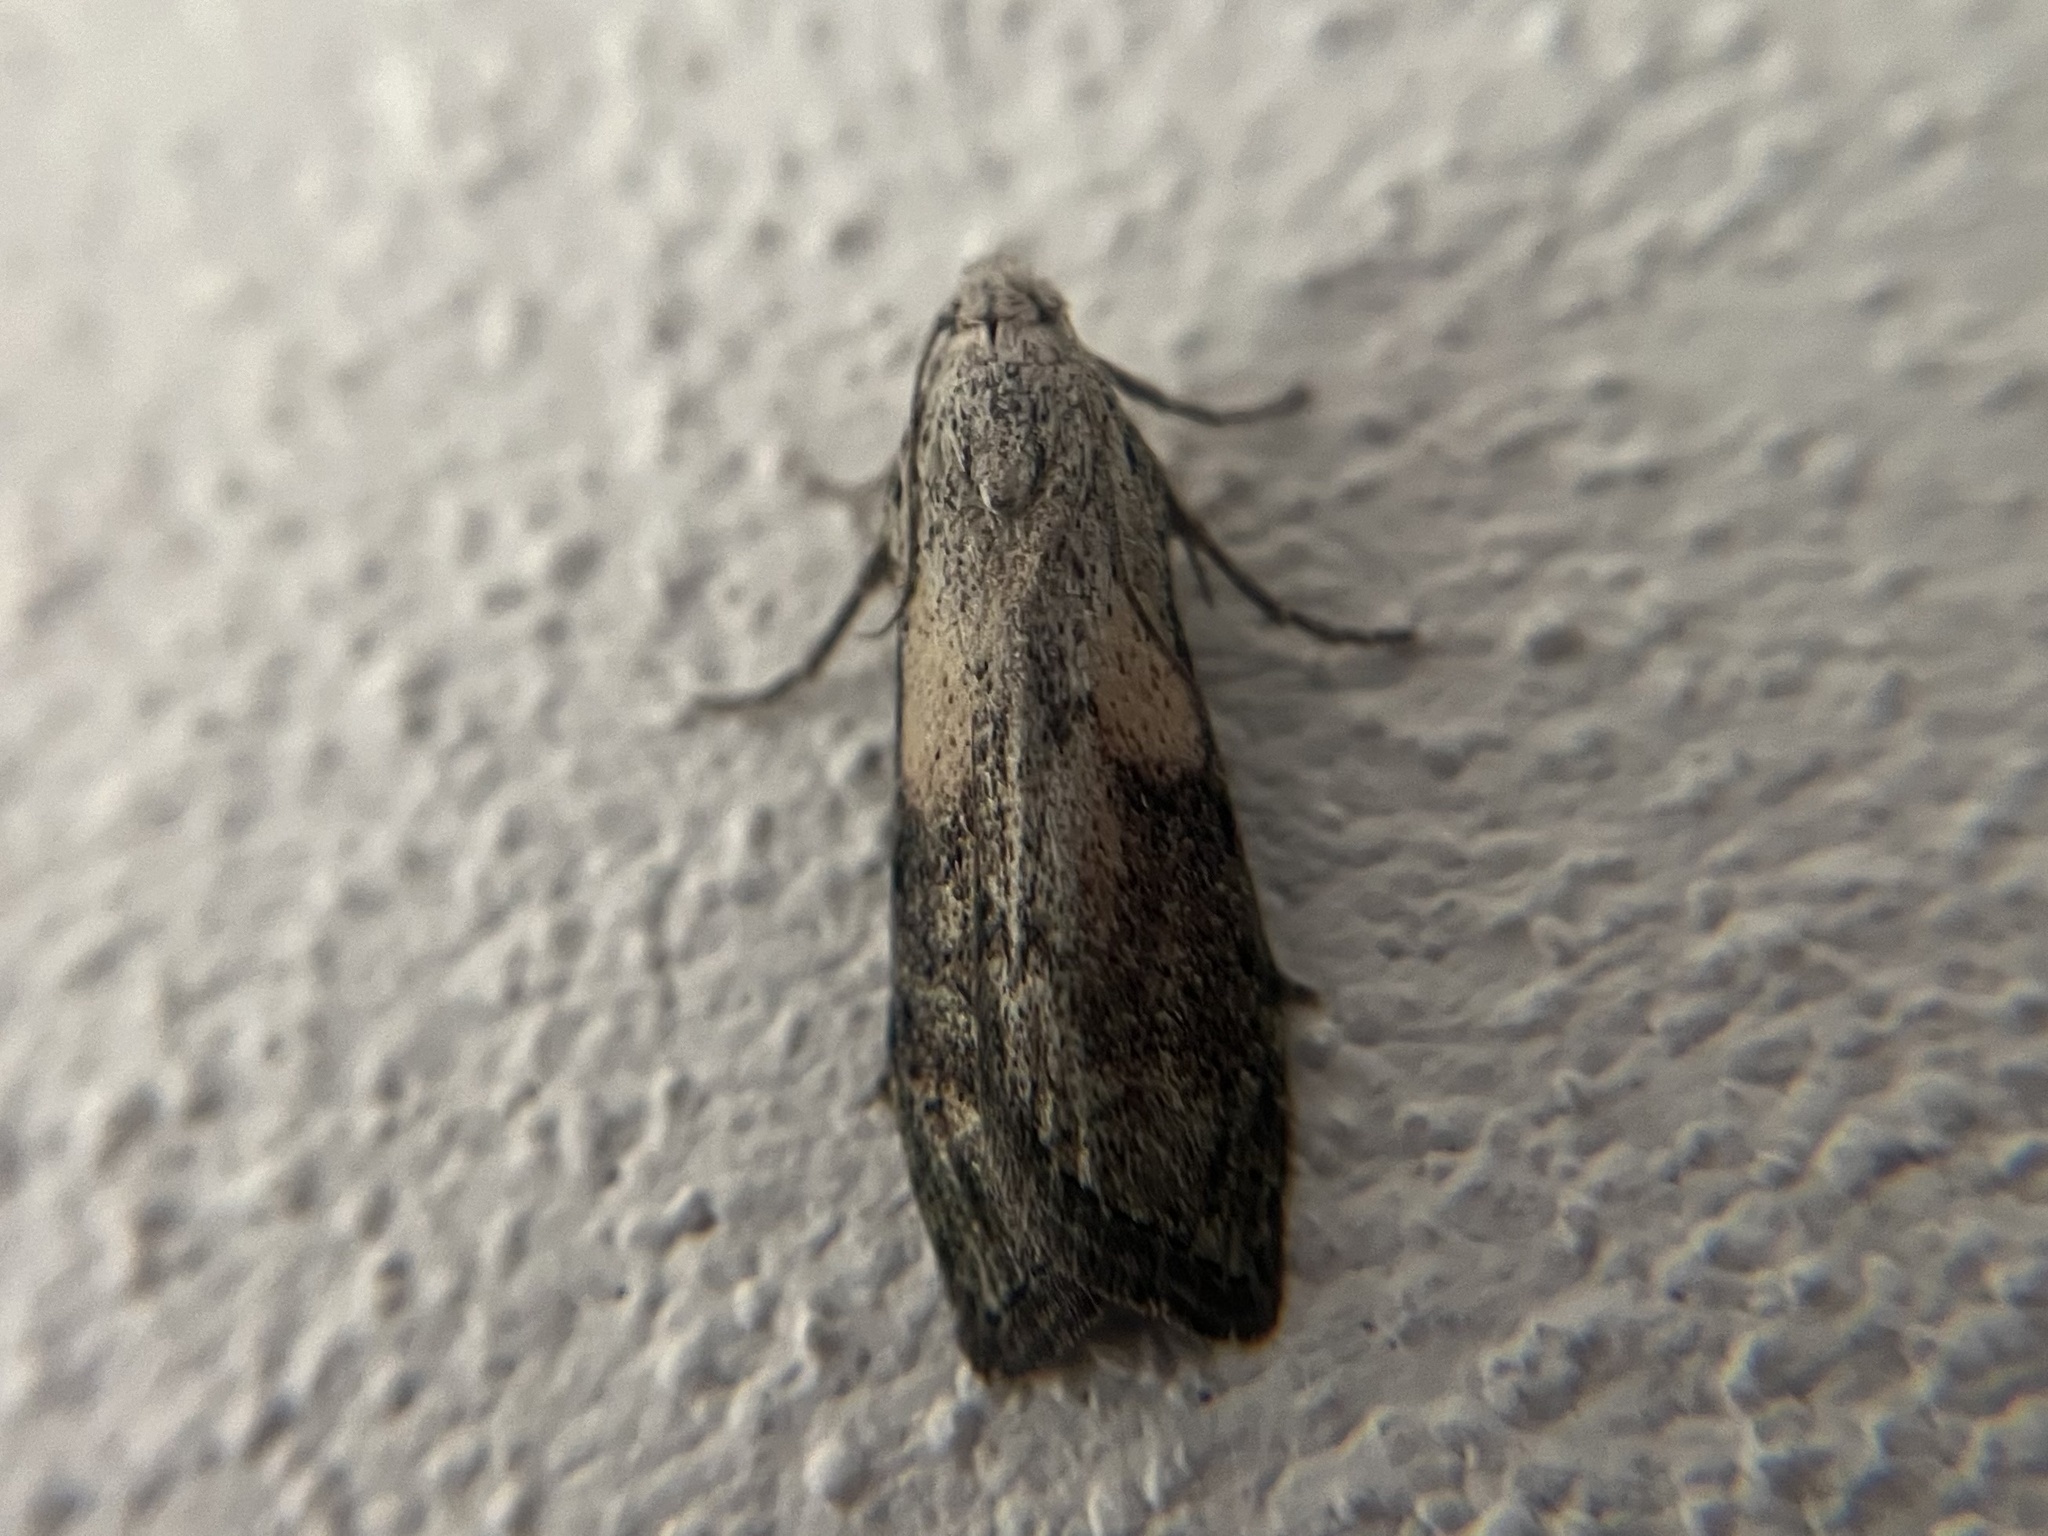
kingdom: Animalia
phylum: Arthropoda
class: Insecta
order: Lepidoptera
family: Pyralidae
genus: Aphomia
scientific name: Aphomia sociella
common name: Bee moth
